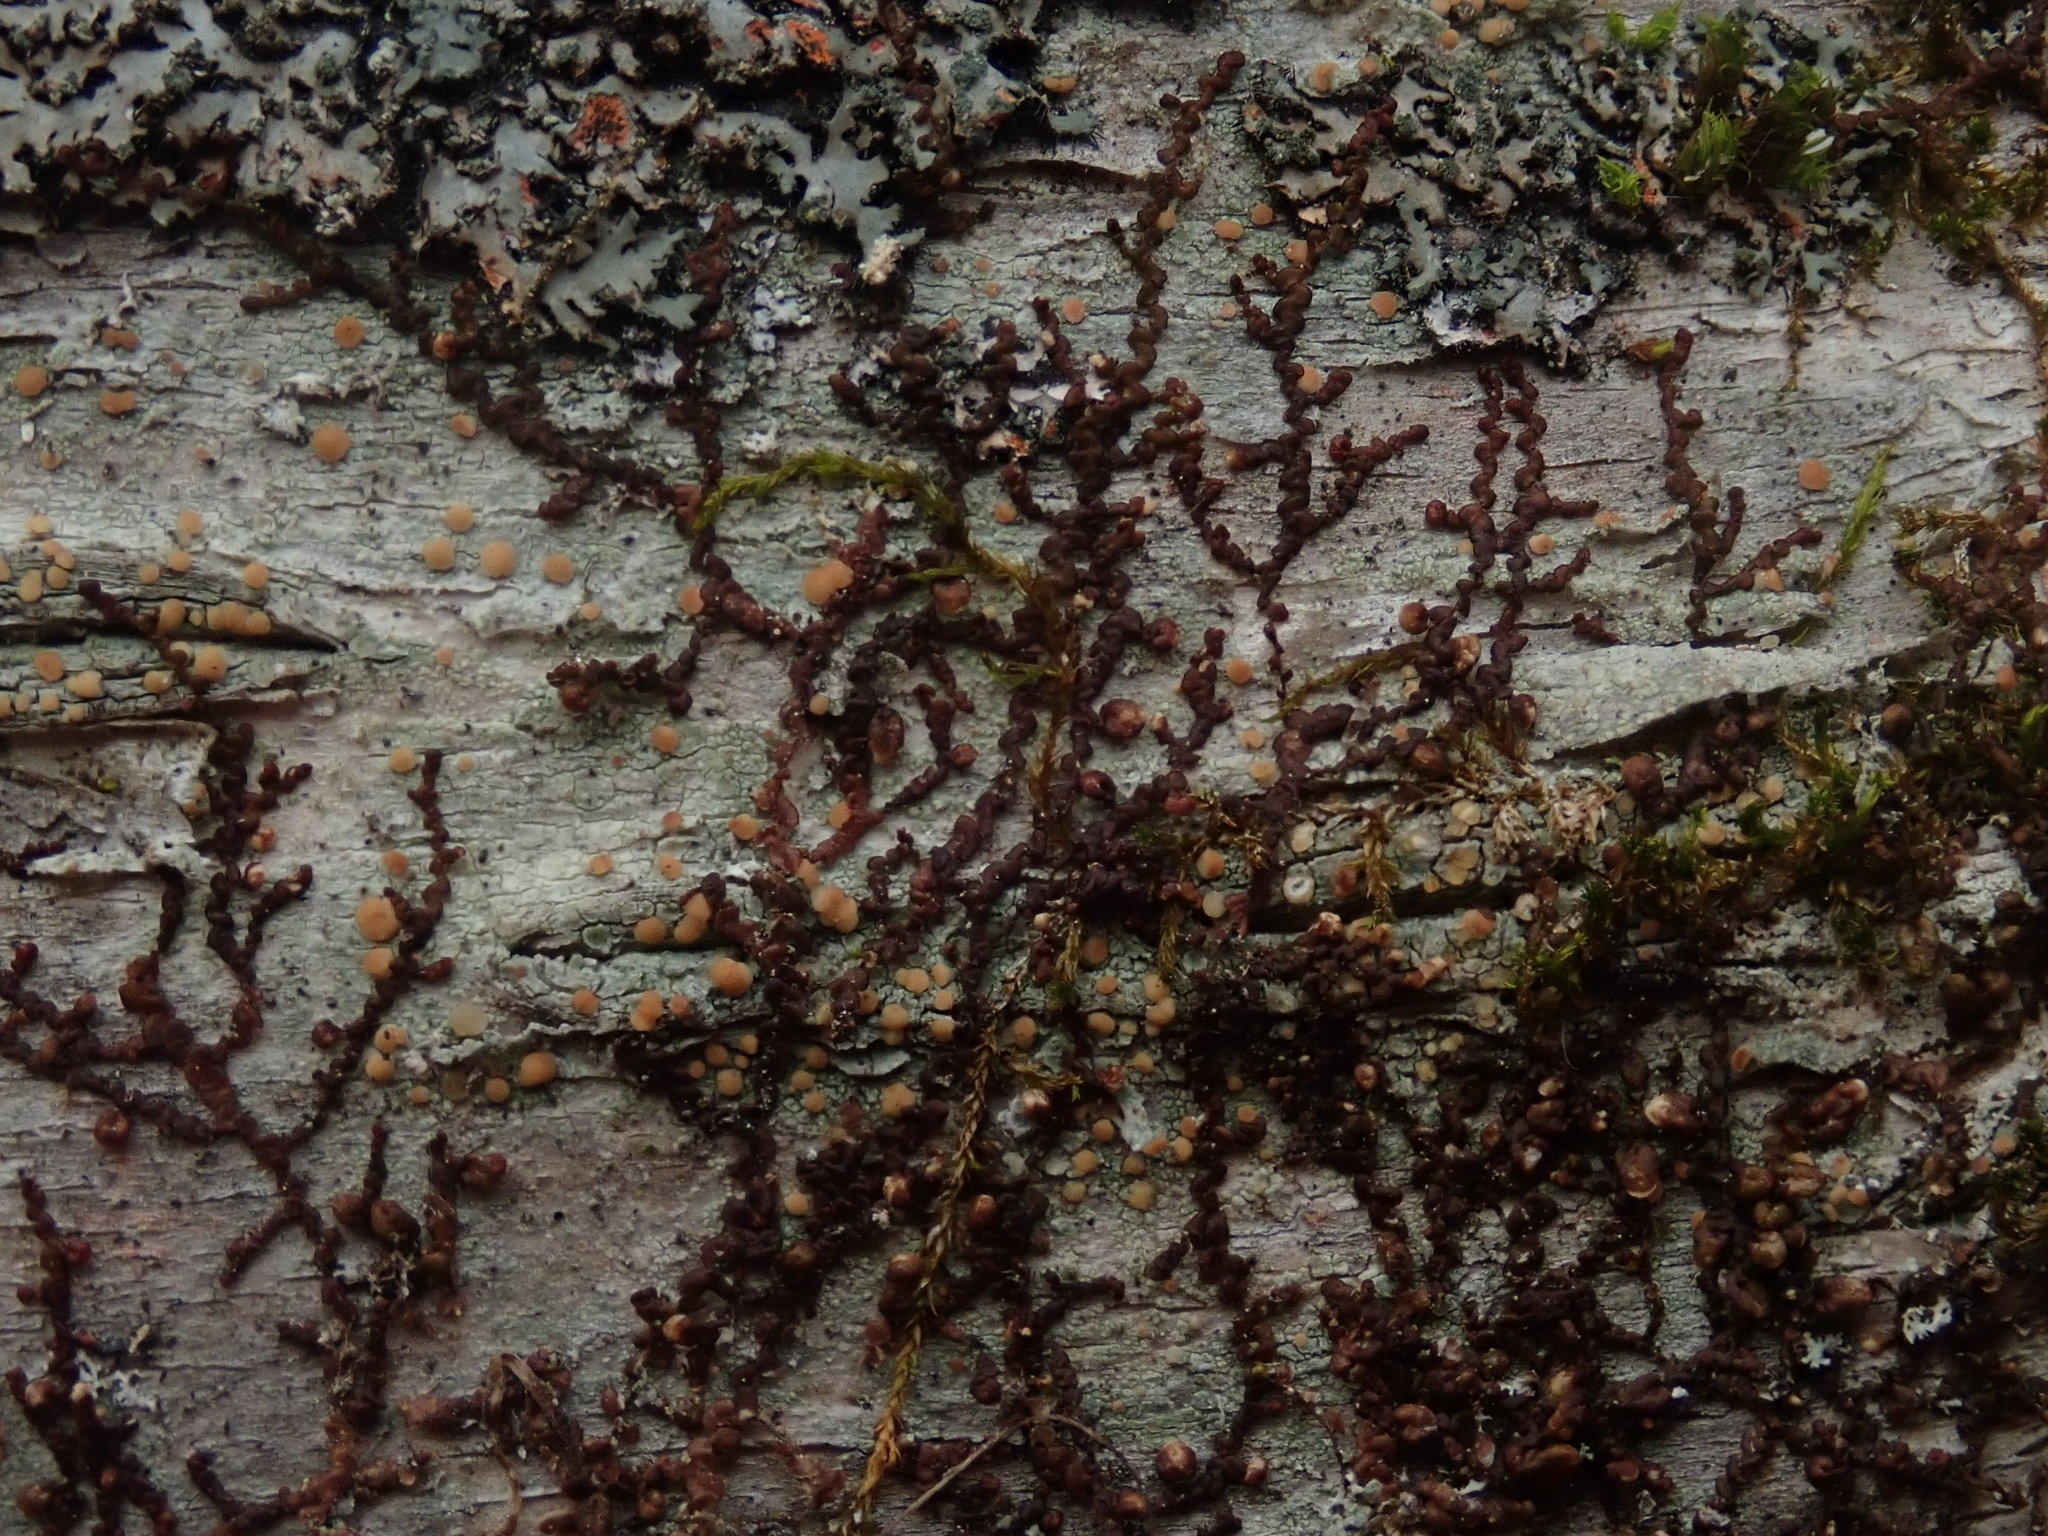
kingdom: Plantae
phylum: Marchantiophyta
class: Jungermanniopsida
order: Porellales
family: Frullaniaceae
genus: Frullania
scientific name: Frullania
